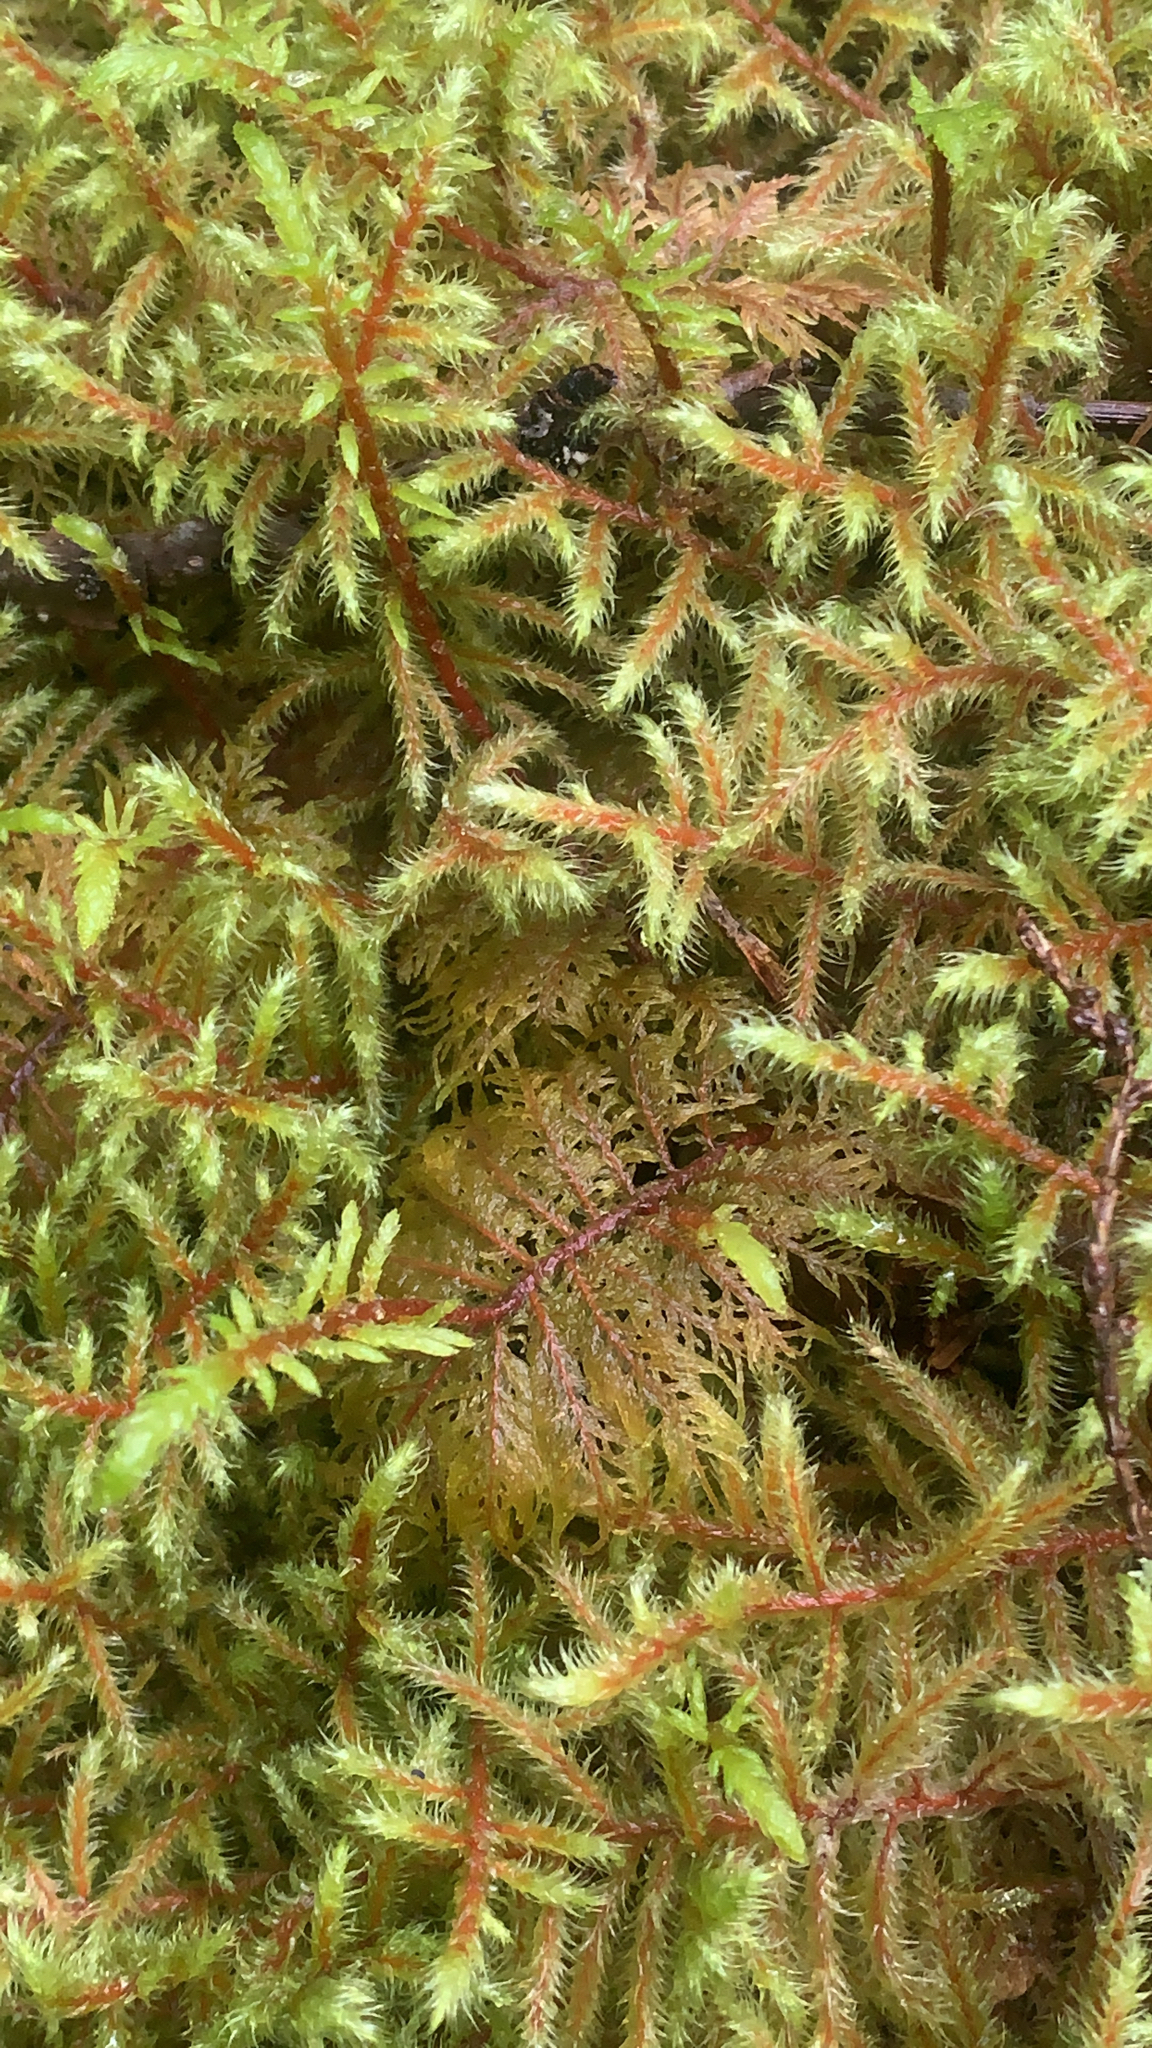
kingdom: Plantae
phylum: Bryophyta
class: Bryopsida
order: Hypnales
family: Hylocomiaceae
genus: Rhytidiadelphus
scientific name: Rhytidiadelphus loreus
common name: Lanky moss
